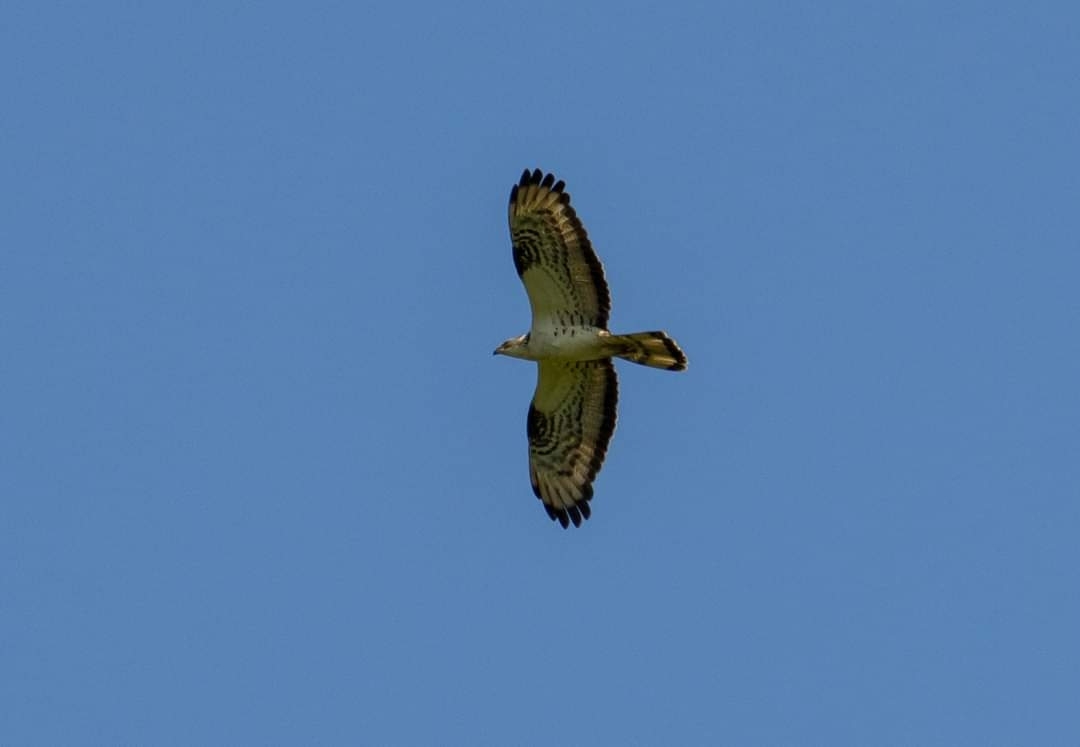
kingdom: Animalia
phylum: Chordata
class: Aves
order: Accipitriformes
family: Accipitridae
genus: Pernis
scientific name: Pernis apivorus
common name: European honey buzzard
